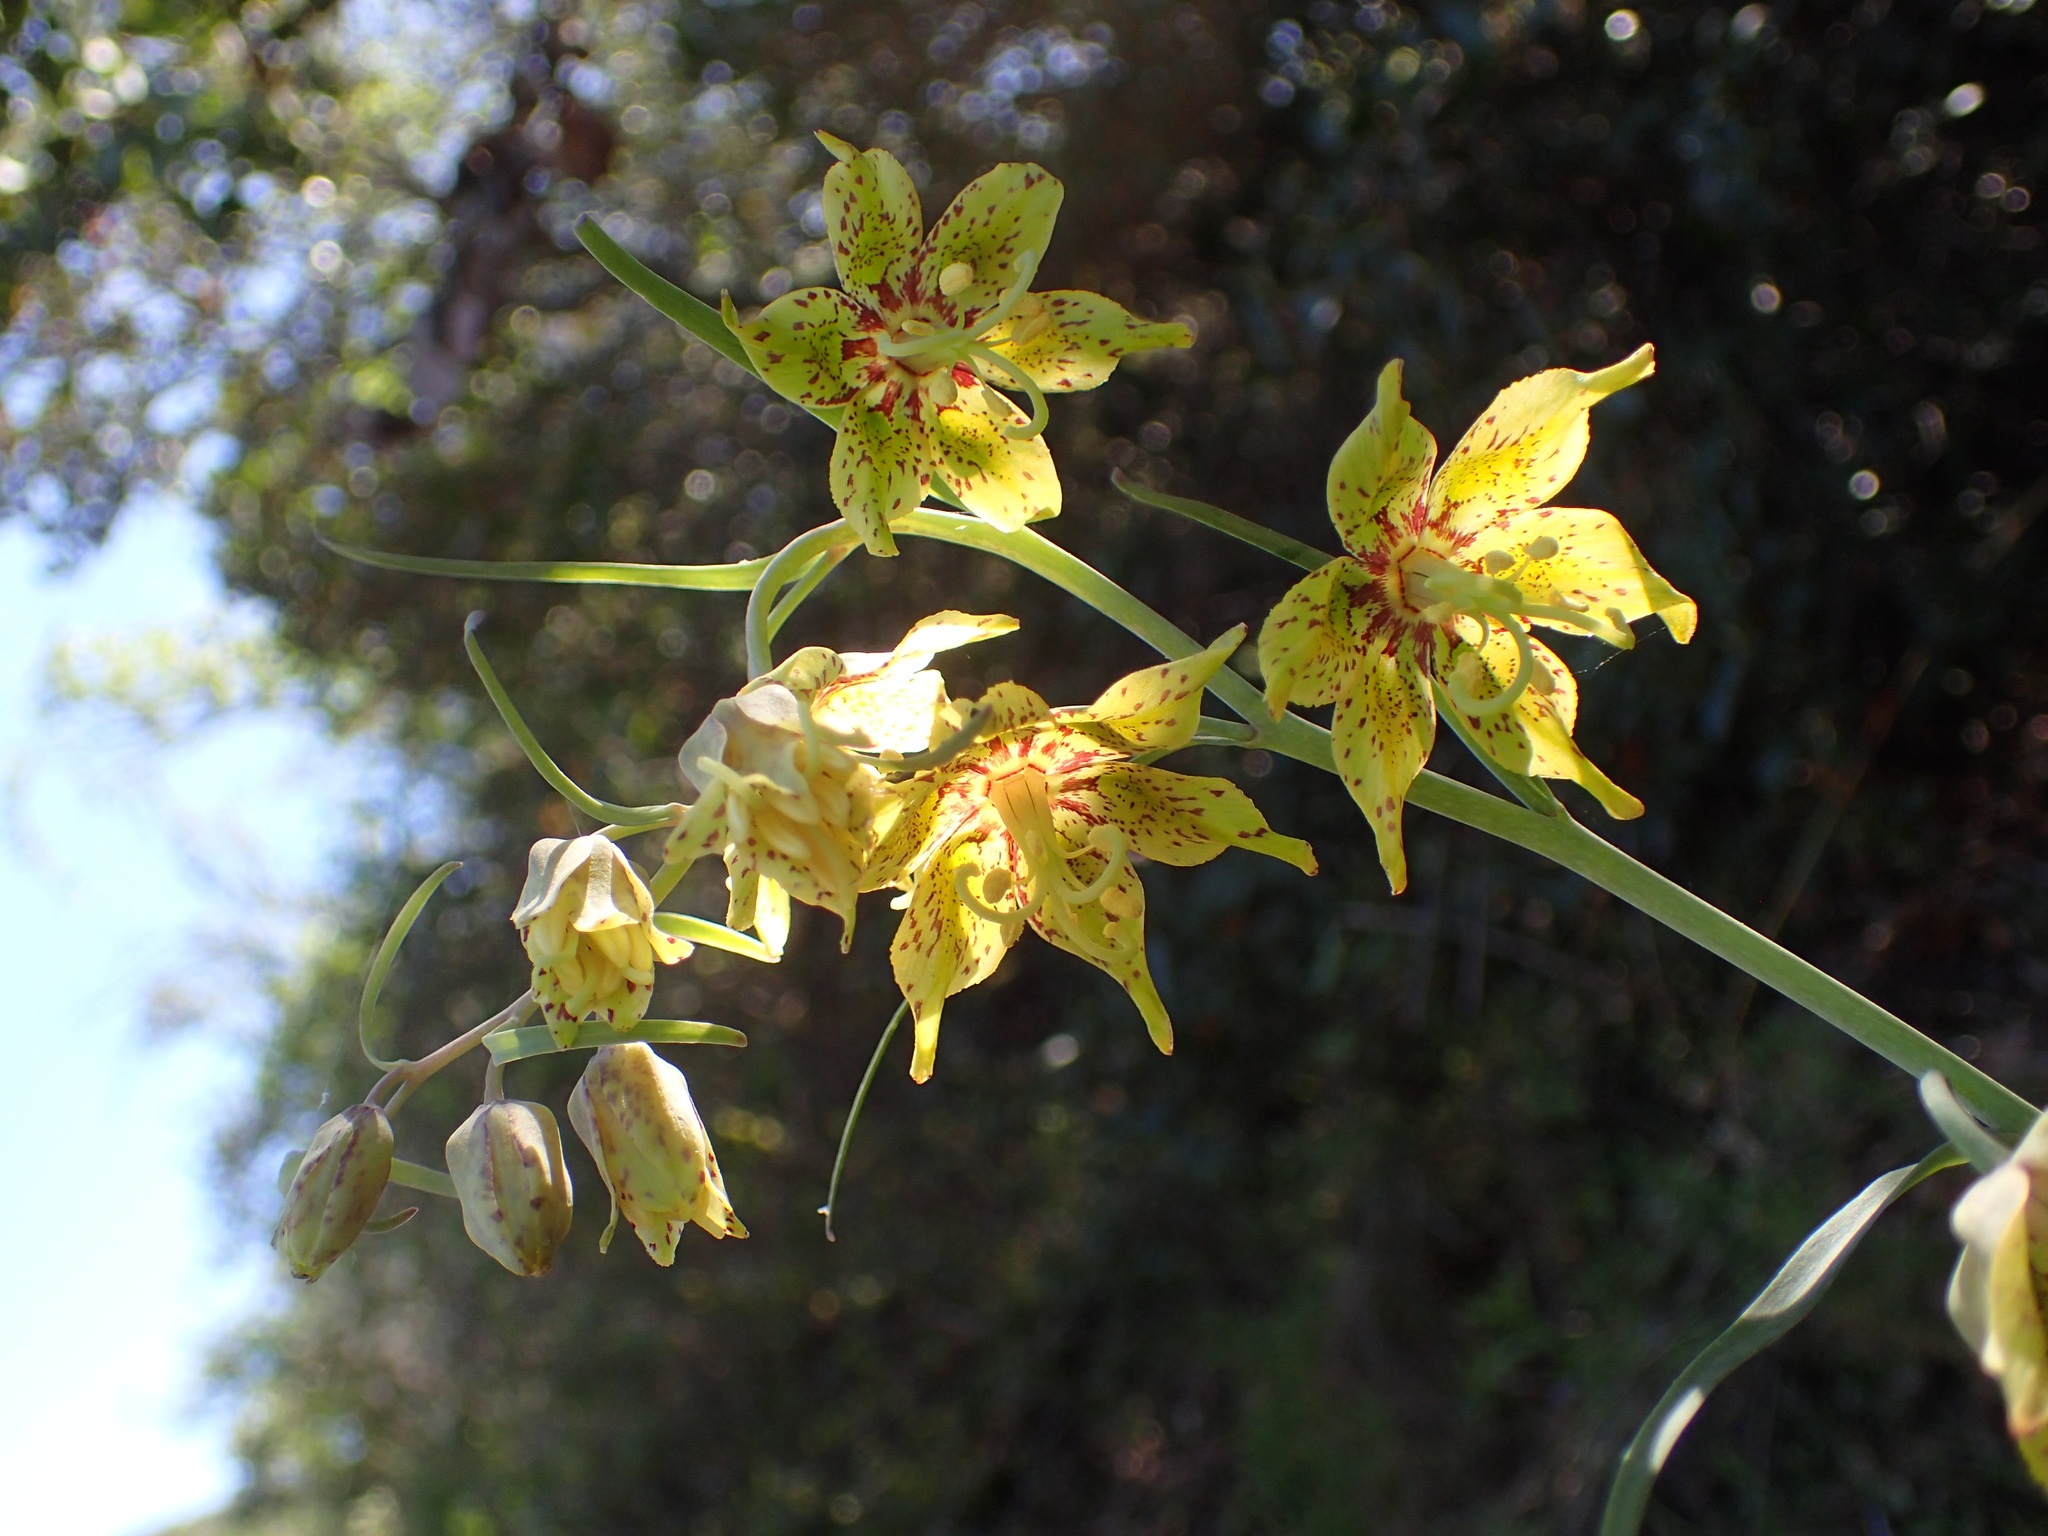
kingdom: Plantae
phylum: Tracheophyta
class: Liliopsida
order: Liliales
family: Liliaceae
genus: Fritillaria
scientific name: Fritillaria ojaiensis
